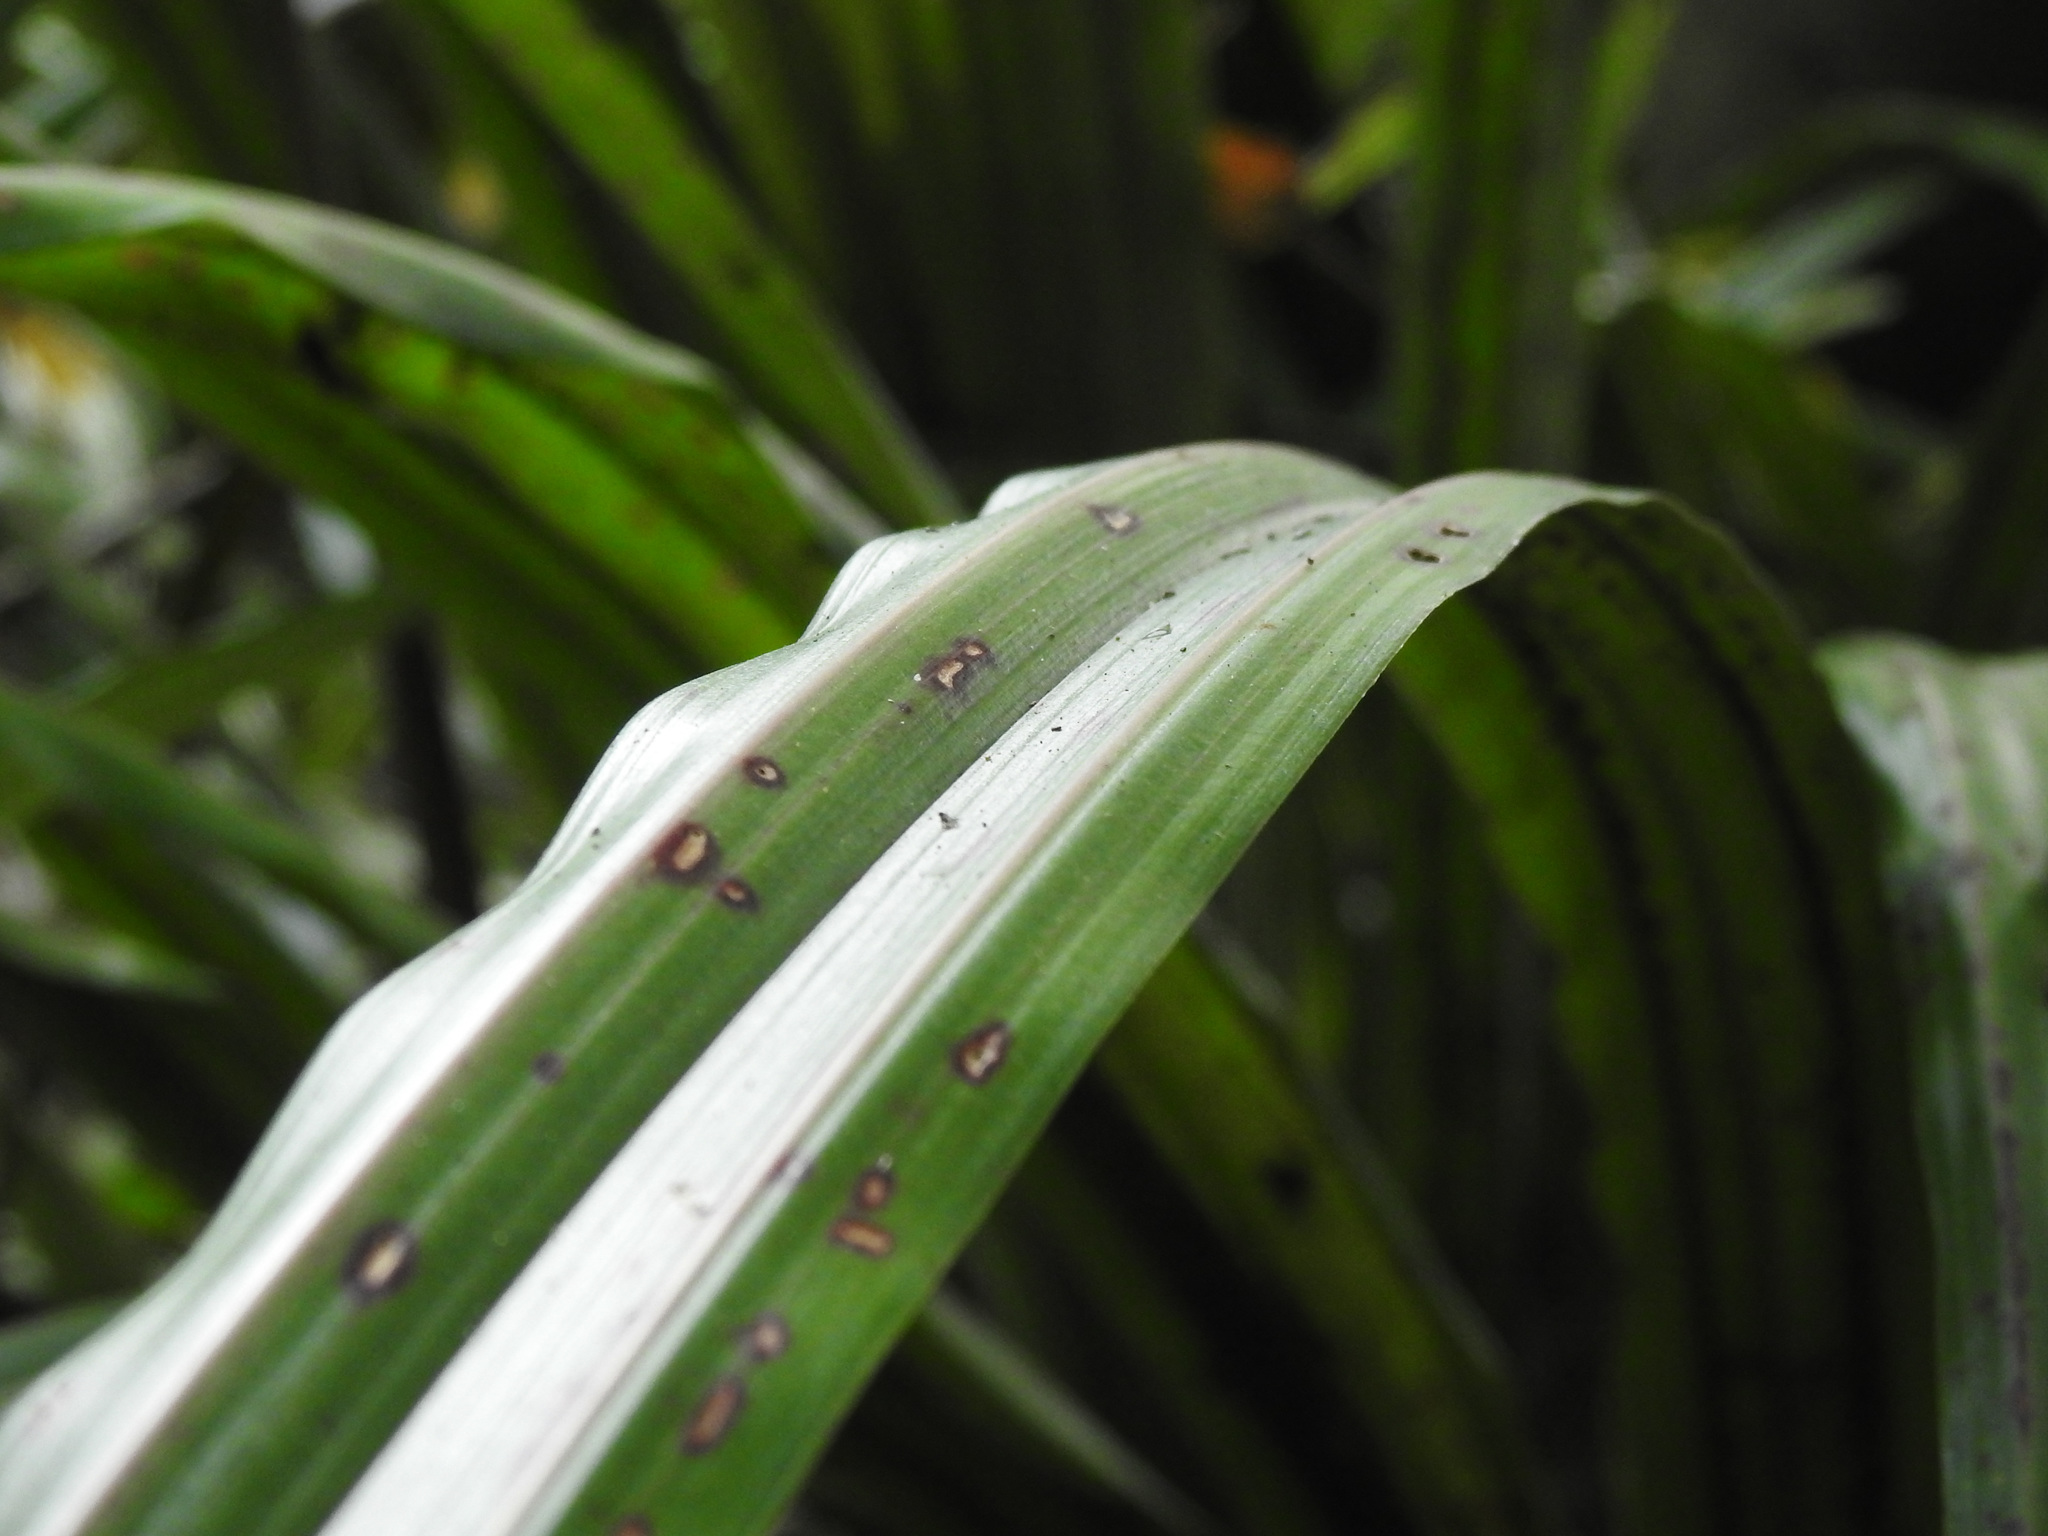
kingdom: Plantae
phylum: Tracheophyta
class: Liliopsida
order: Asparagales
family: Asteliaceae
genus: Astelia
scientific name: Astelia fragrans
